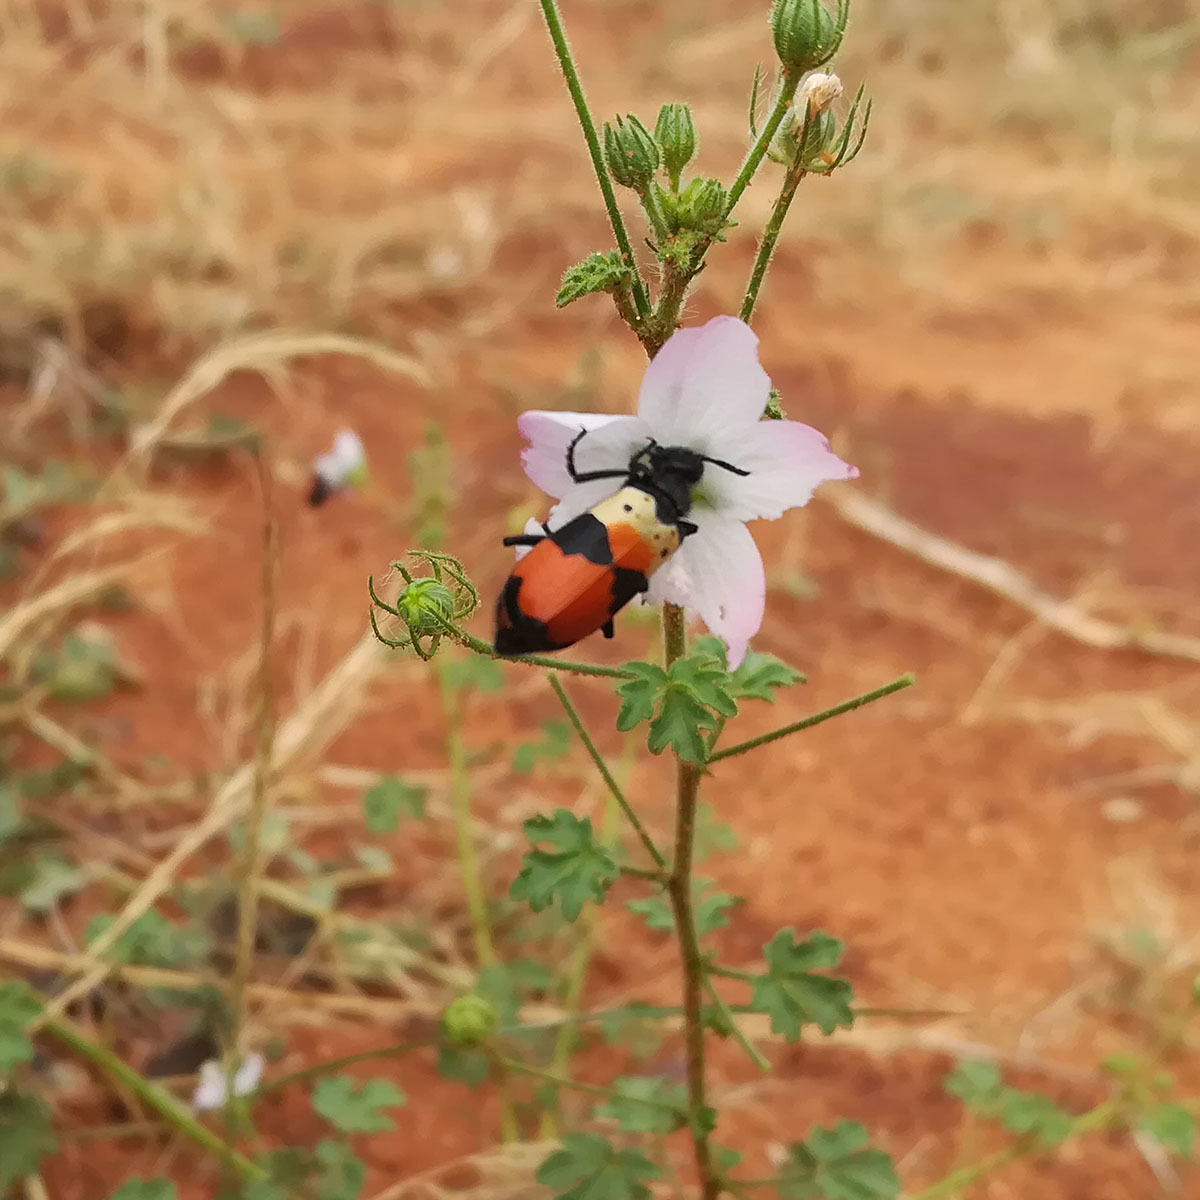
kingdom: Animalia
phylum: Arthropoda
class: Insecta
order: Coleoptera
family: Meloidae
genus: Hycleus
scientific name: Hycleus
